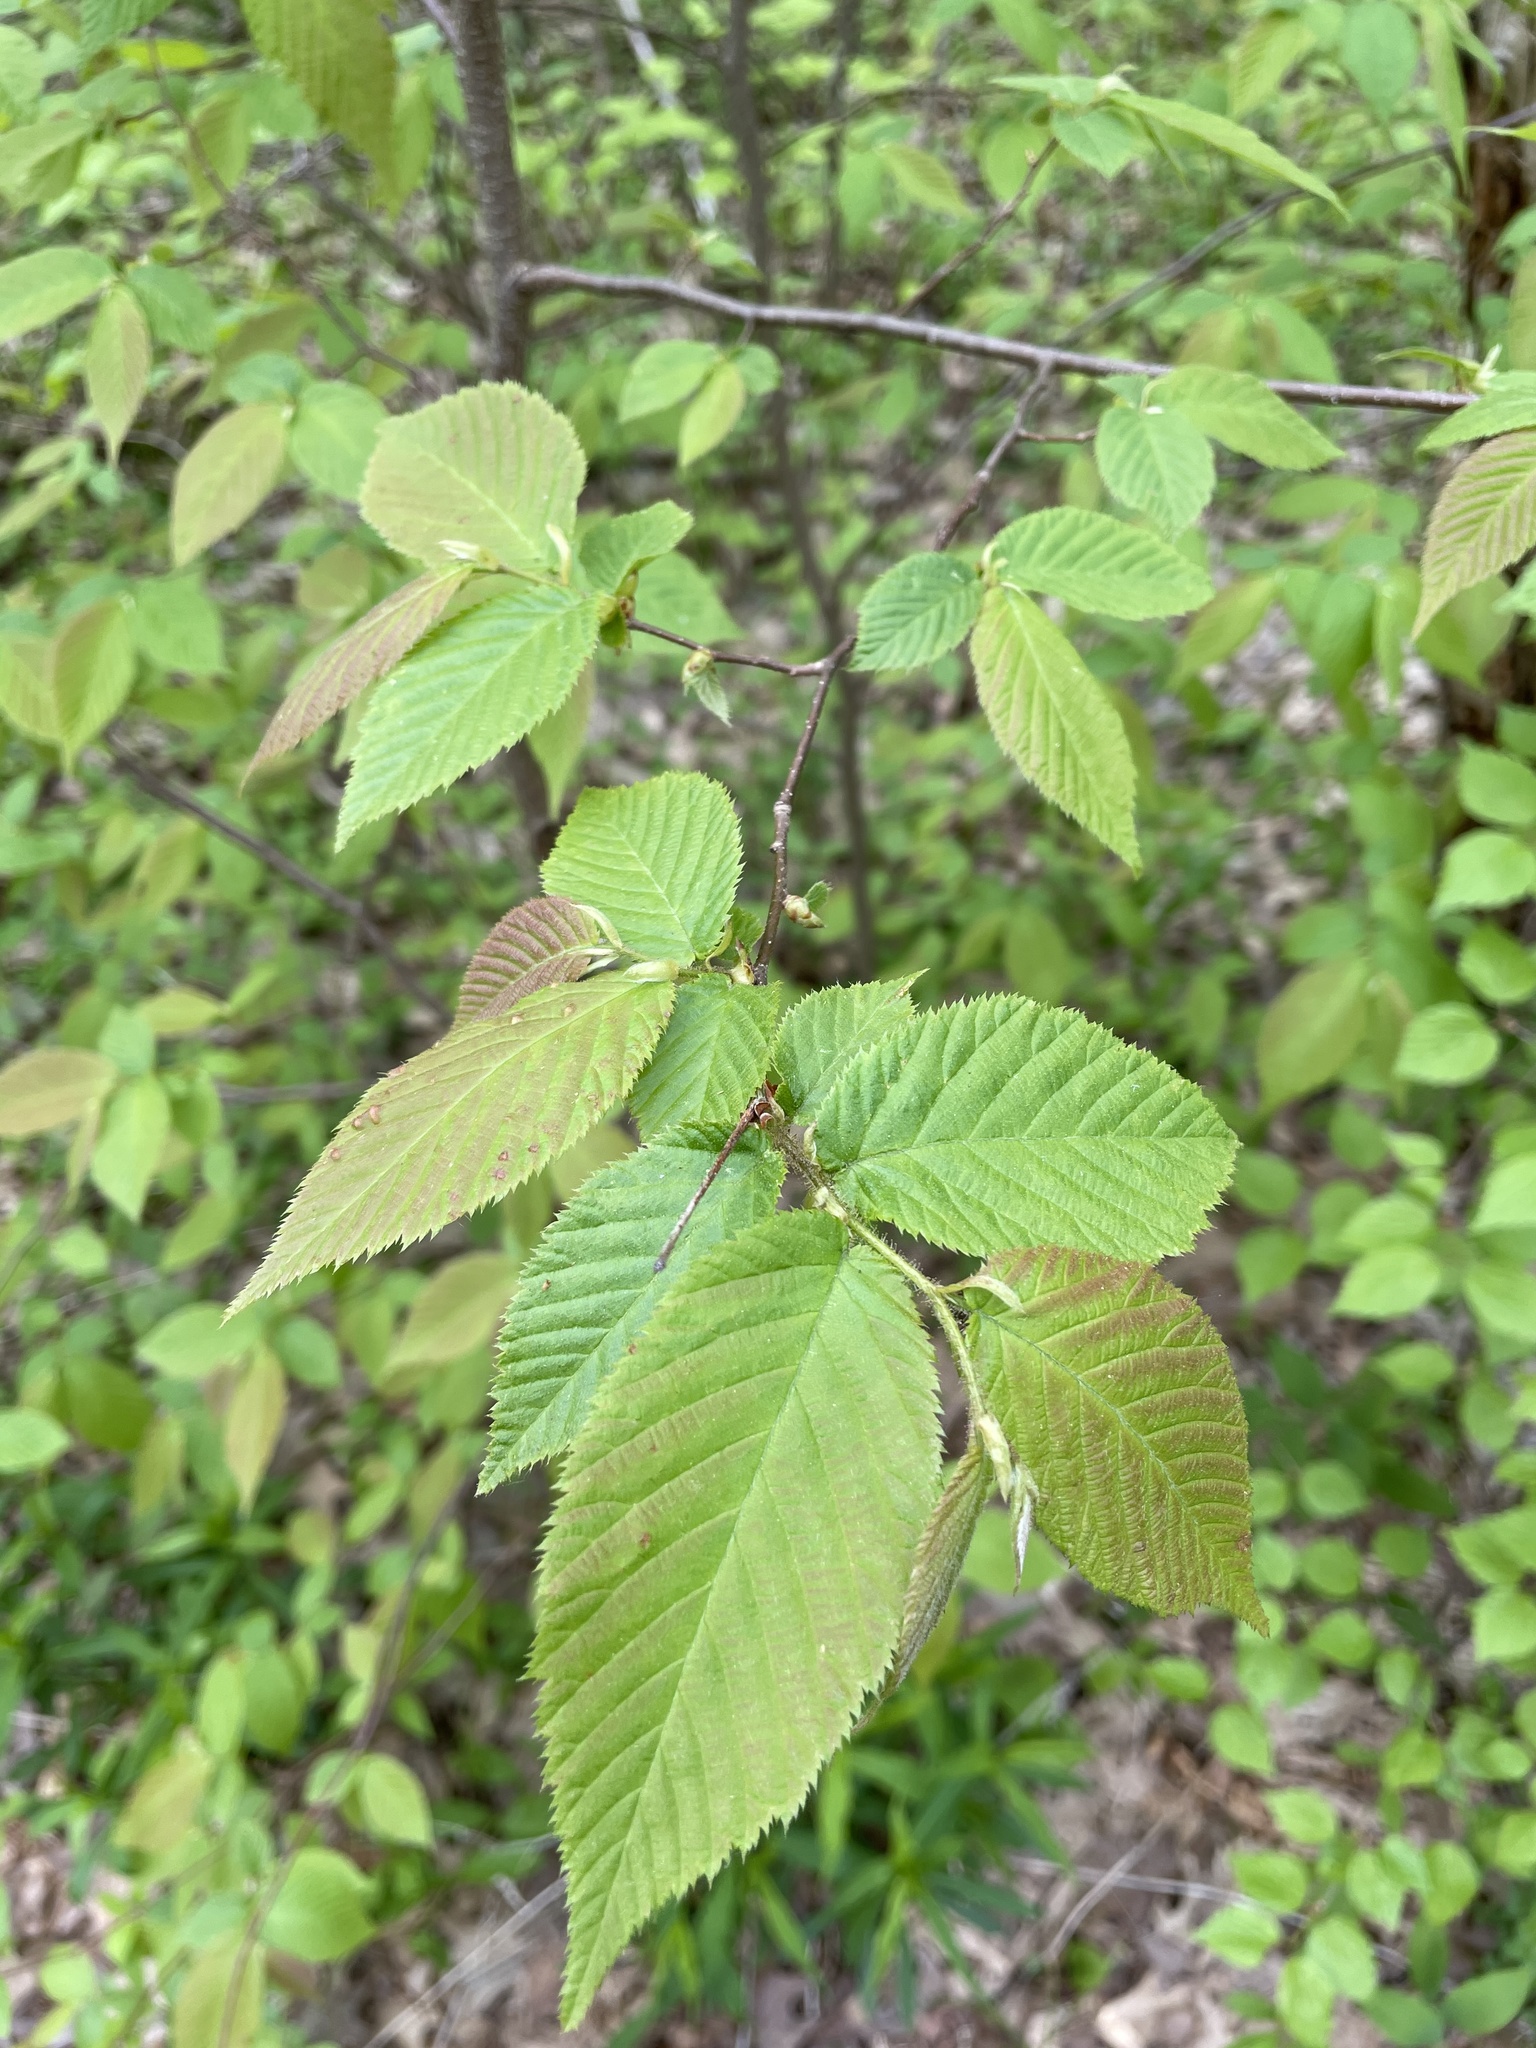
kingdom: Plantae
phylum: Tracheophyta
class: Magnoliopsida
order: Fagales
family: Betulaceae
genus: Ostrya
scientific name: Ostrya virginiana
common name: Ironwood
